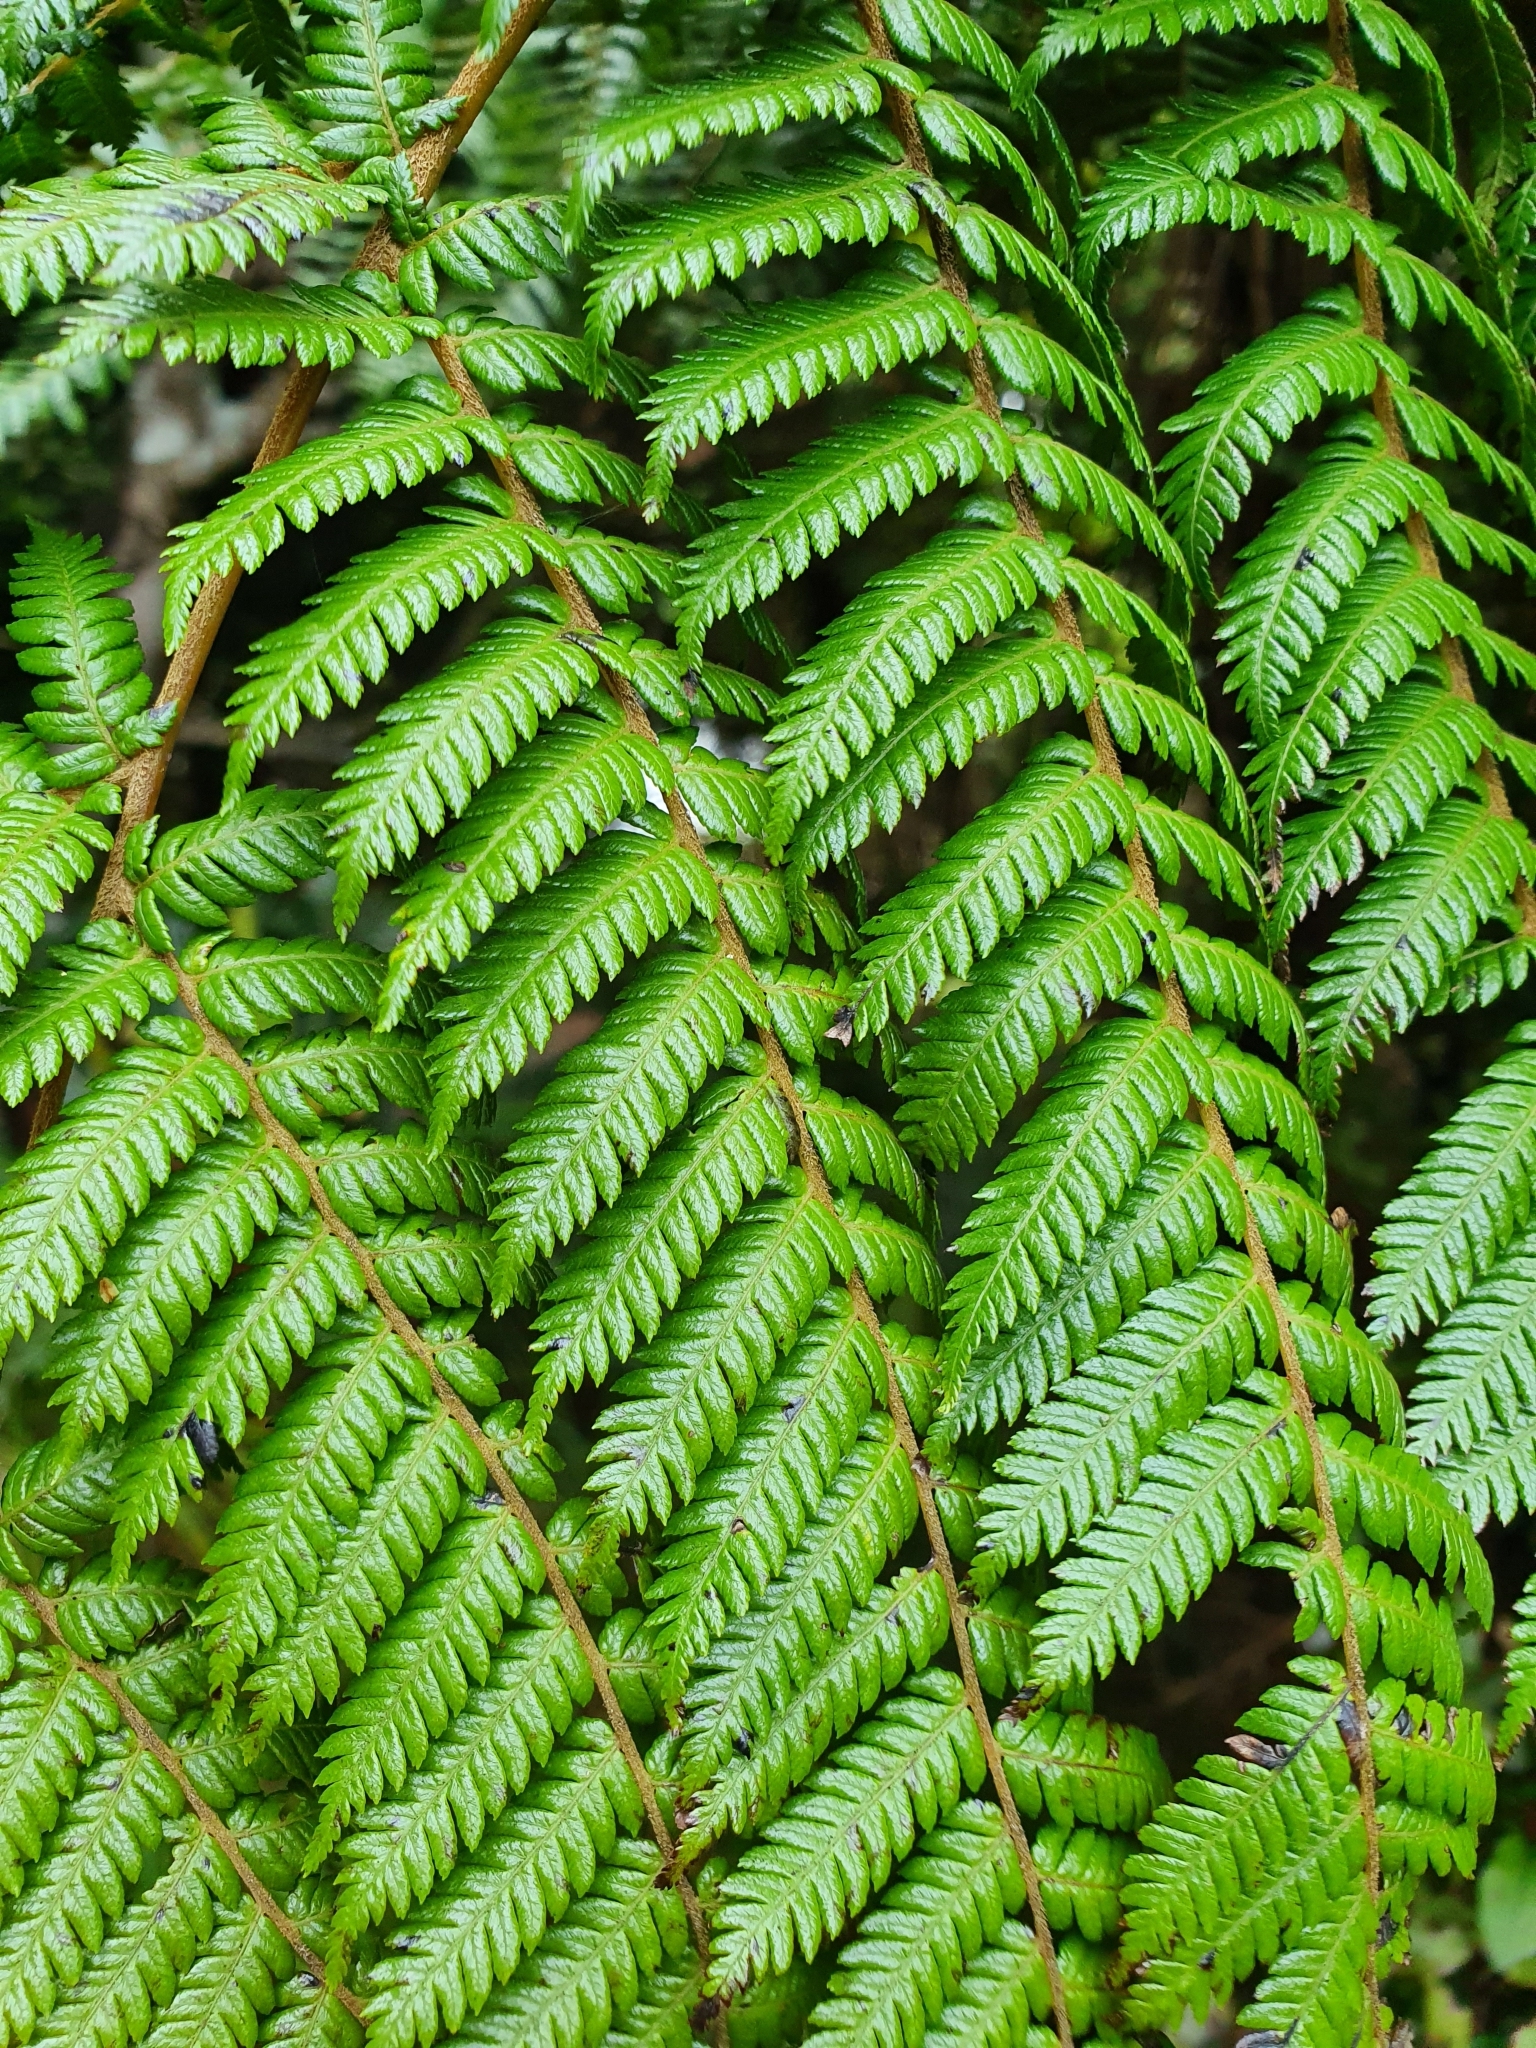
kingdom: Plantae
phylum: Tracheophyta
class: Polypodiopsida
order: Cyatheales
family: Cyatheaceae
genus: Alsophila
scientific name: Alsophila smithii
